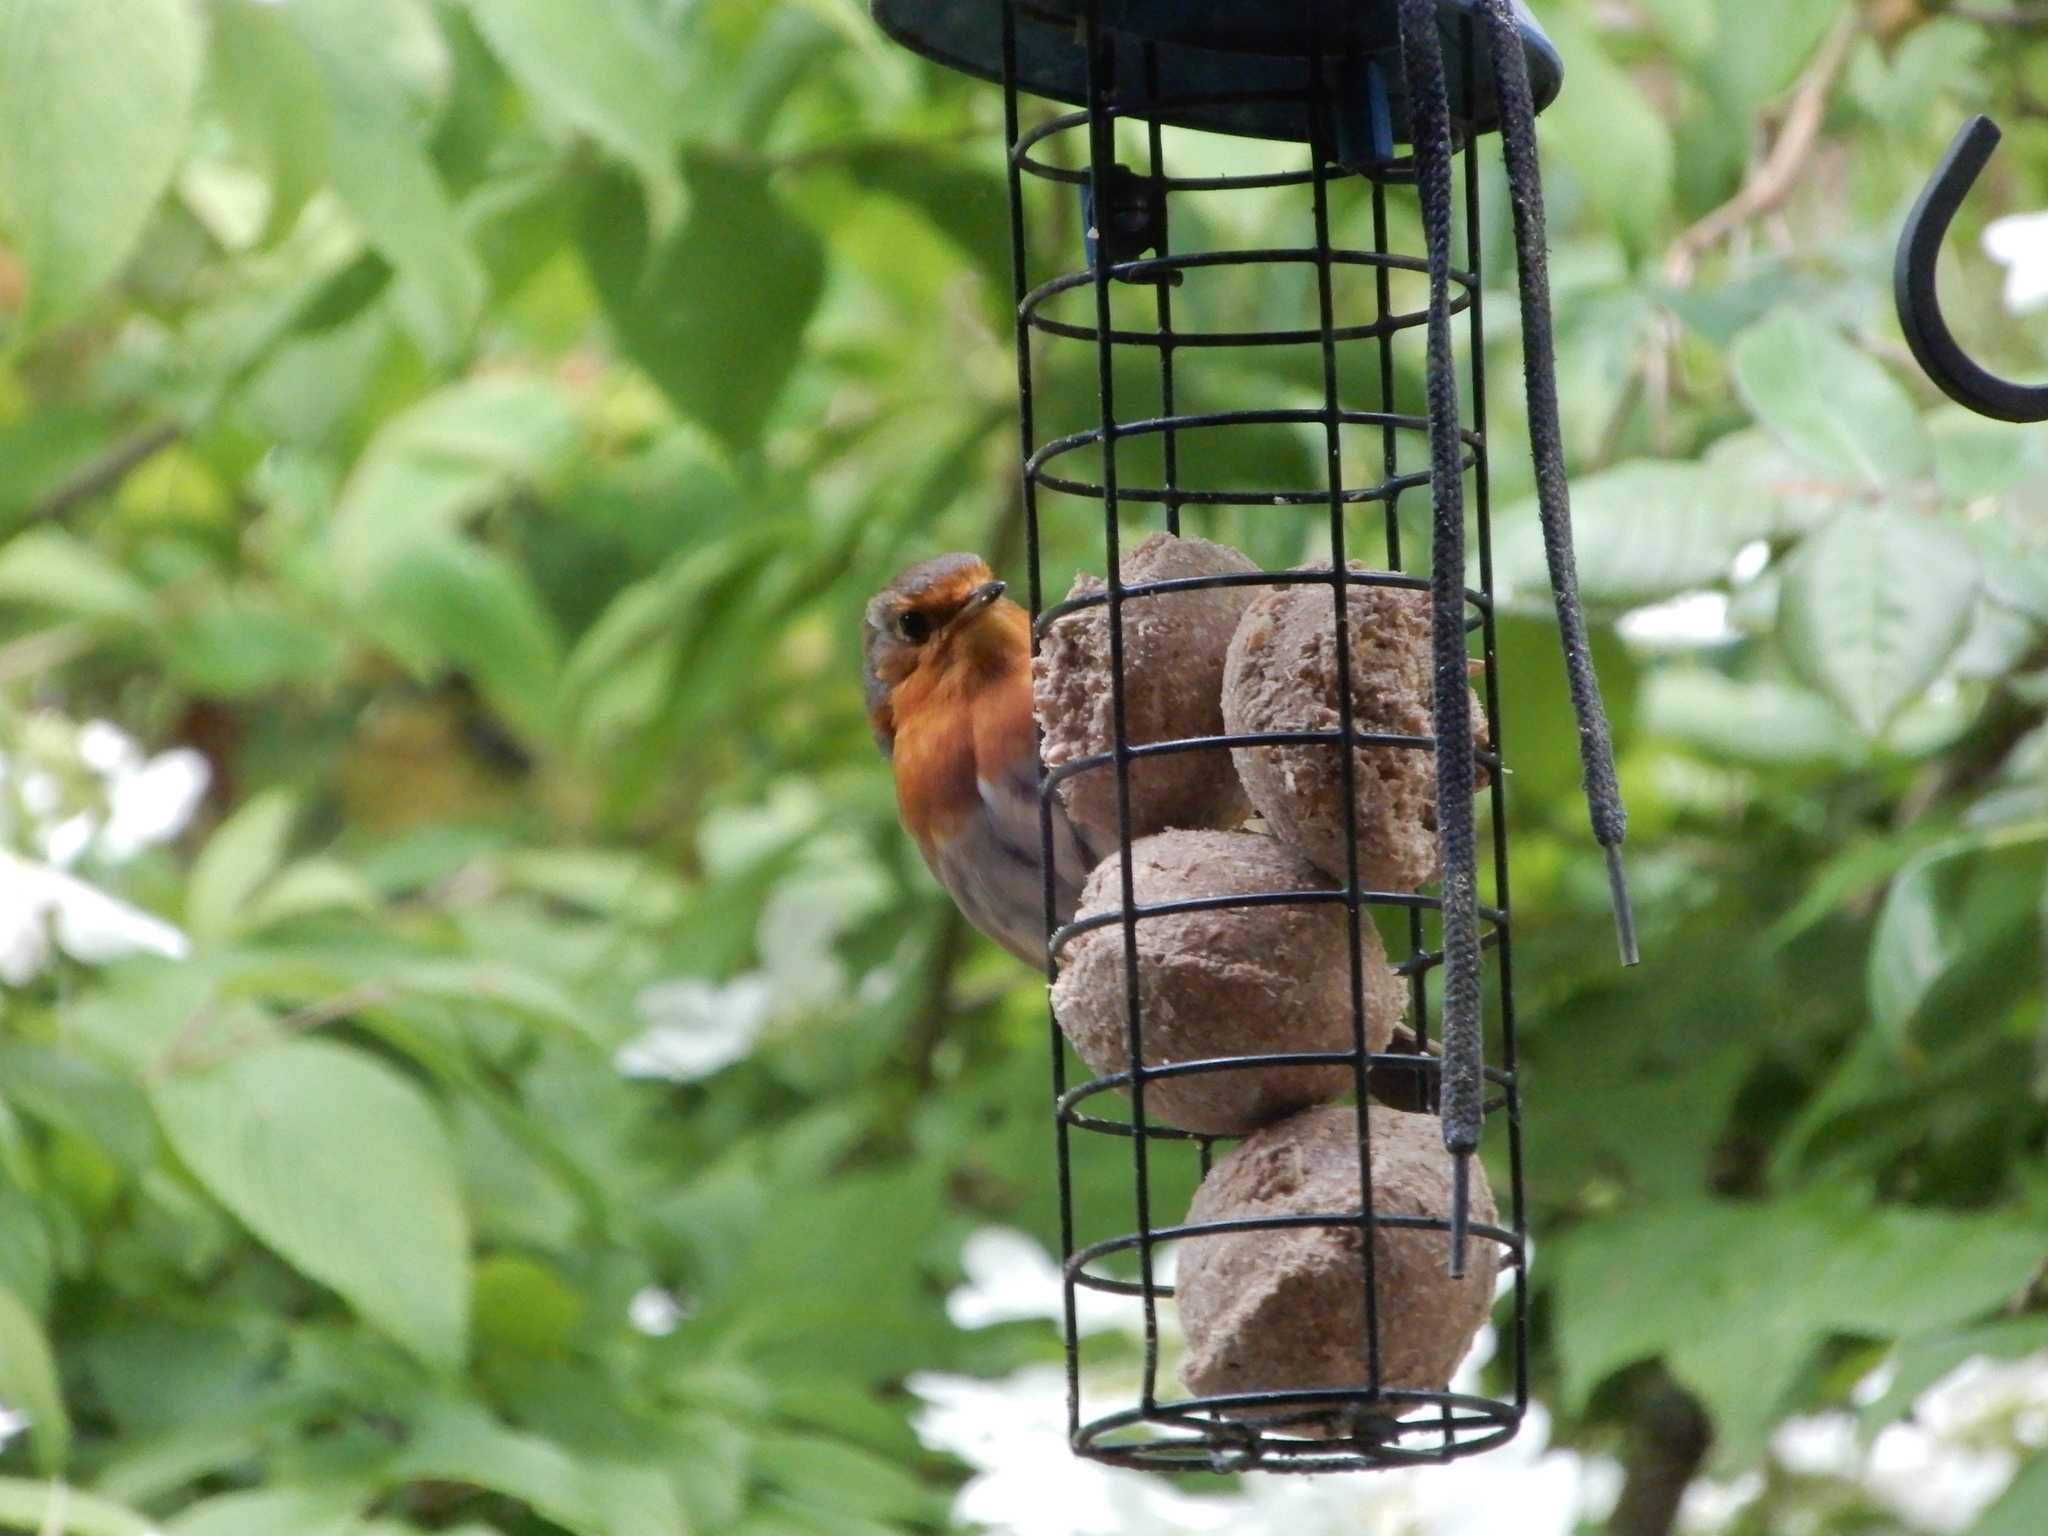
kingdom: Animalia
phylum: Chordata
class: Aves
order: Passeriformes
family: Muscicapidae
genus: Erithacus
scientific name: Erithacus rubecula
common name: European robin
